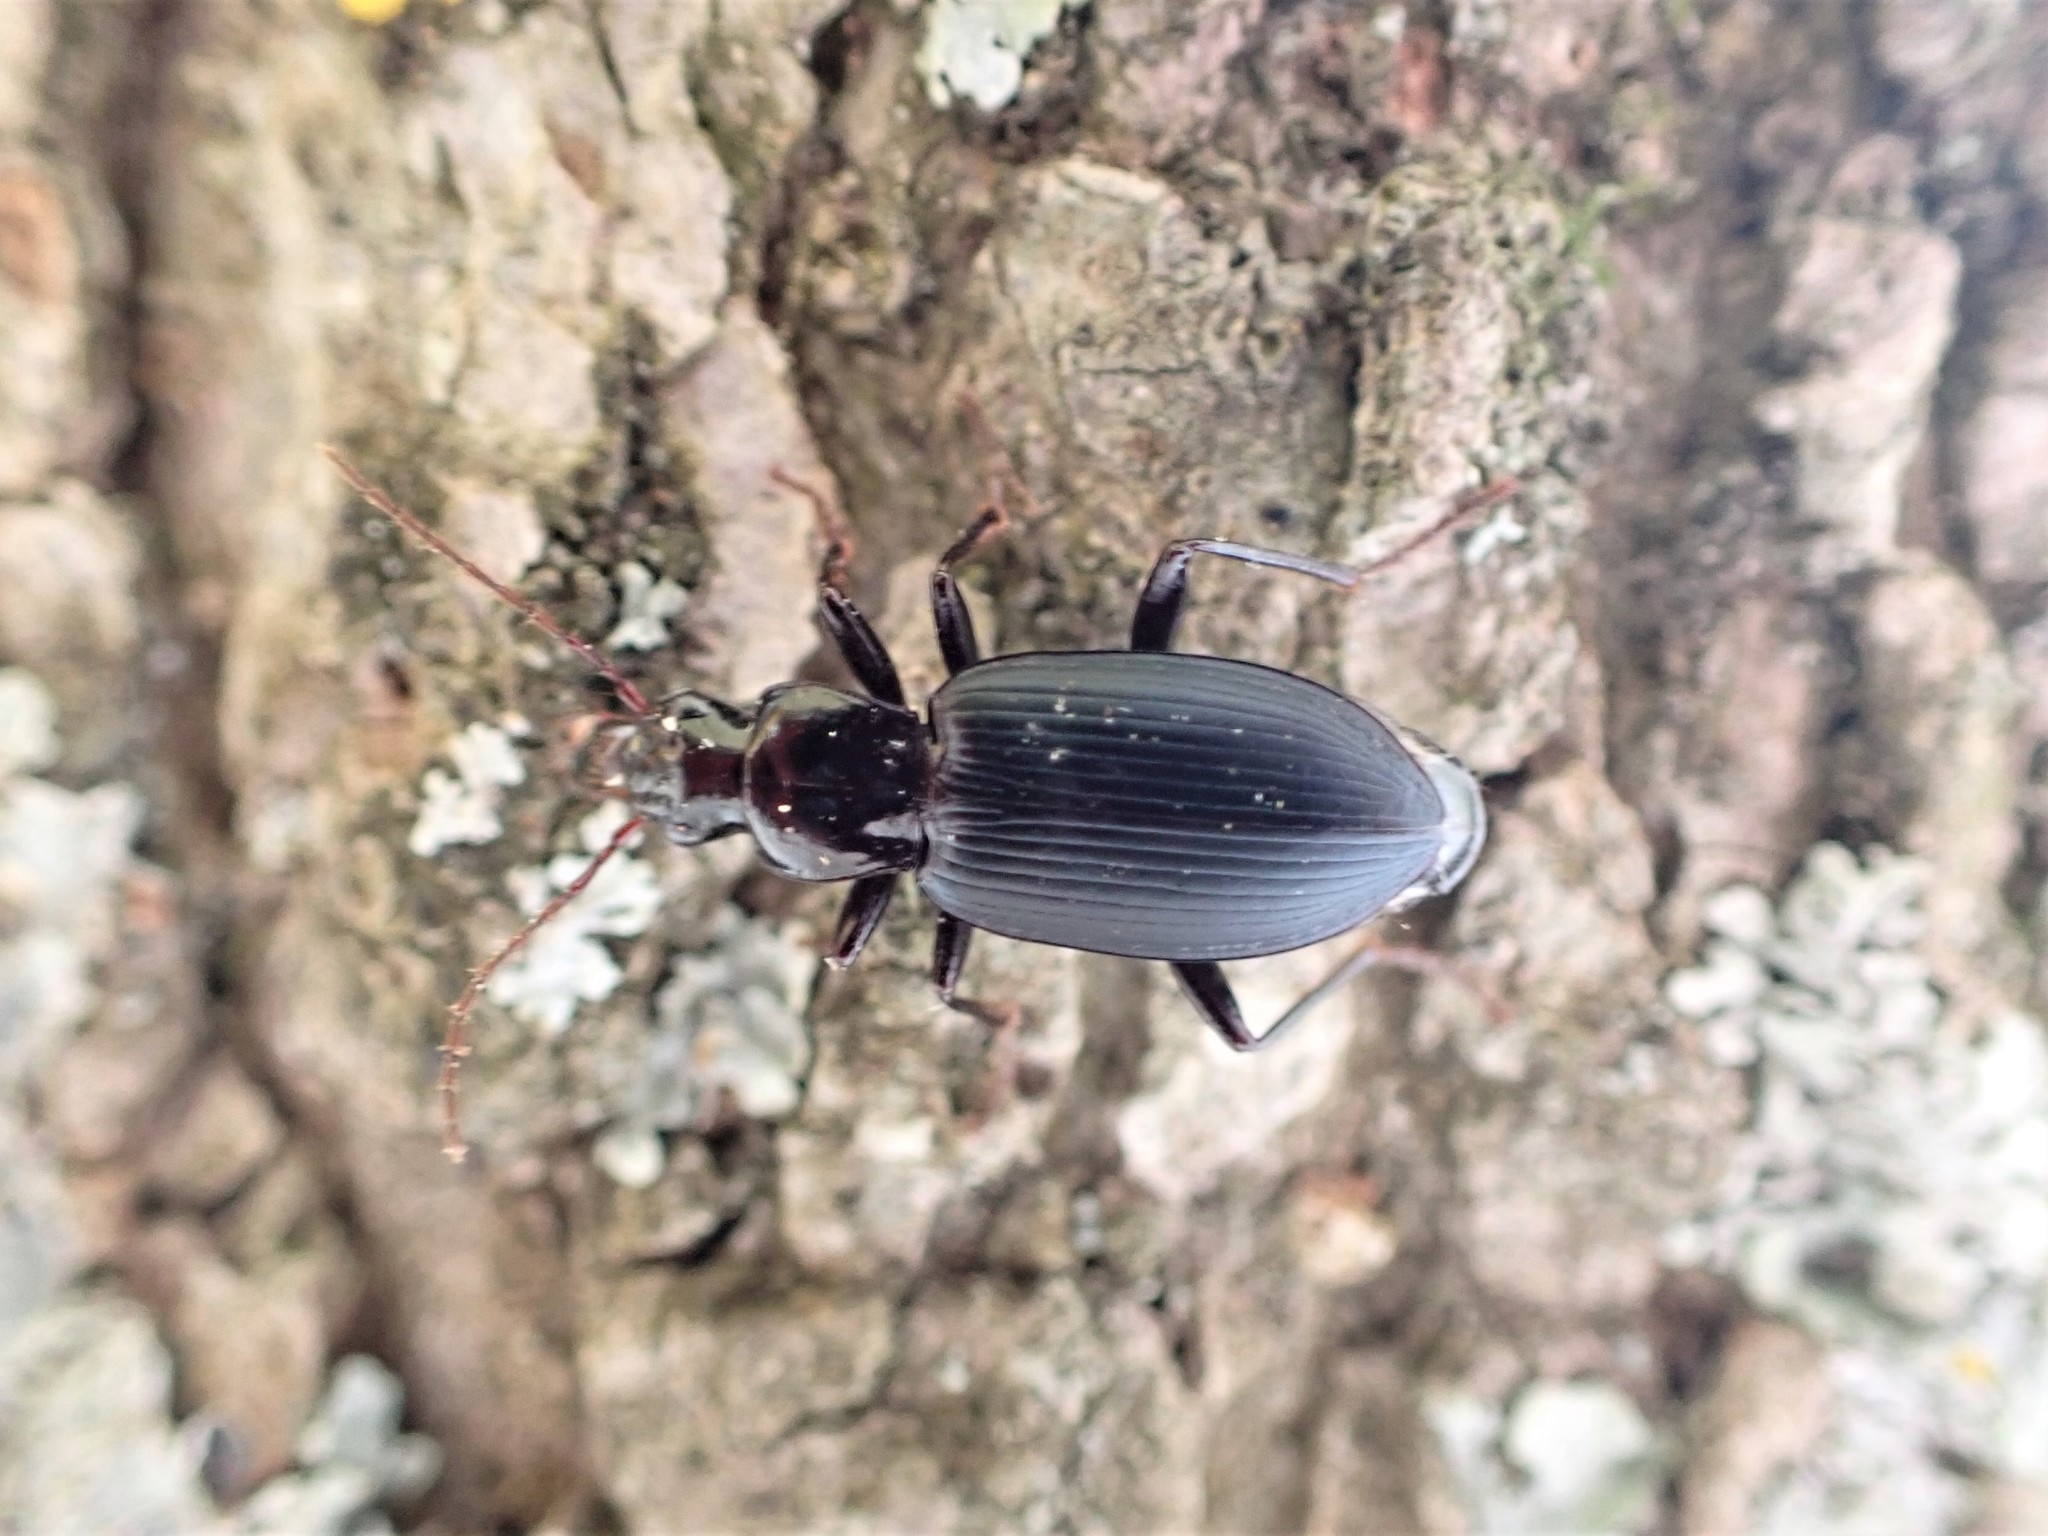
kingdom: Animalia
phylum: Arthropoda
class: Insecta
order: Coleoptera
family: Carabidae
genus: Laemostenus
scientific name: Laemostenus complanatus
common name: Cosmopolitan ground beetle
